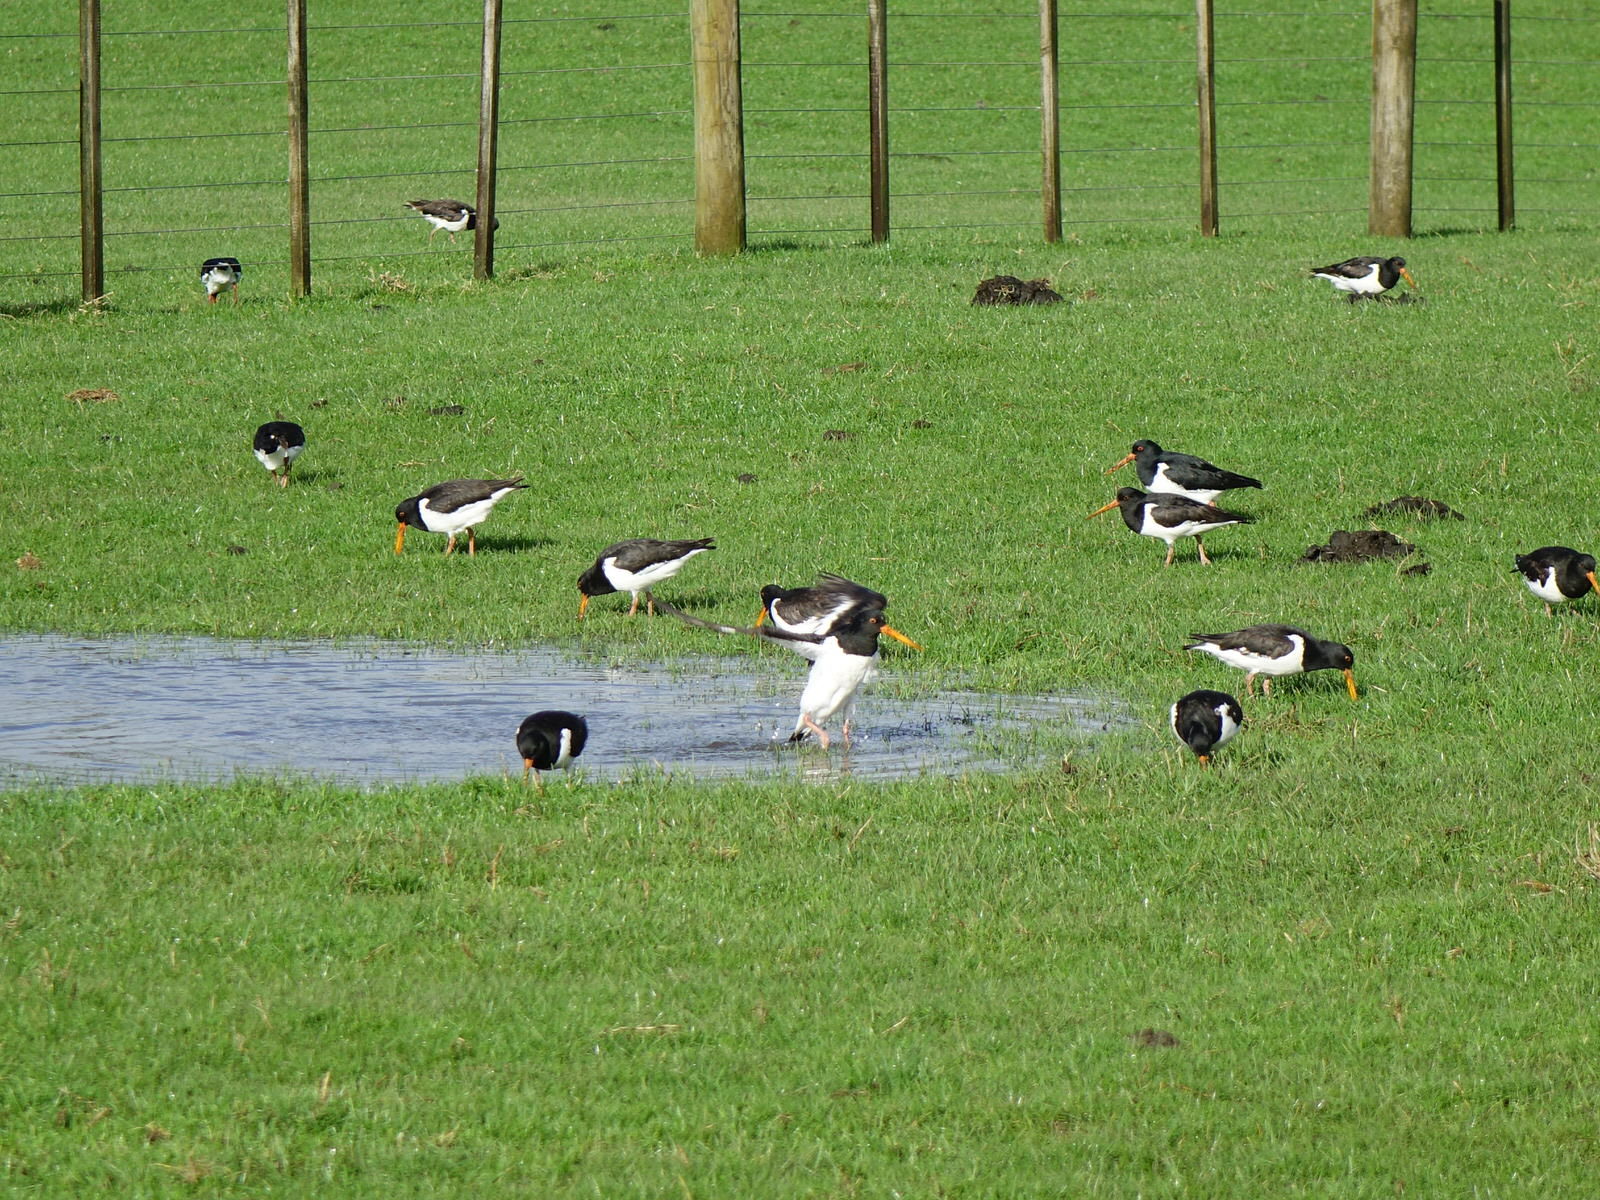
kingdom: Animalia
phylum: Chordata
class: Aves
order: Charadriiformes
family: Haematopodidae
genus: Haematopus
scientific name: Haematopus finschi
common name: South island oystercatcher
